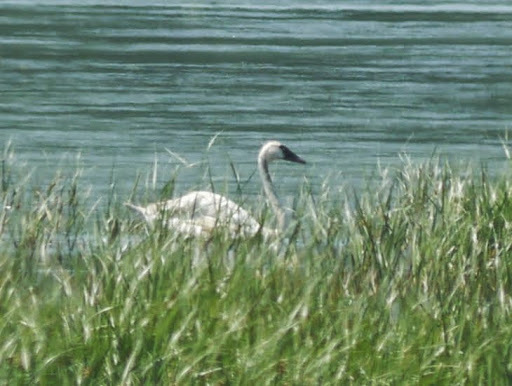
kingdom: Animalia
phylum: Chordata
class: Aves
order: Anseriformes
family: Anatidae
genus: Cygnus
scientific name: Cygnus columbianus
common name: Tundra swan
